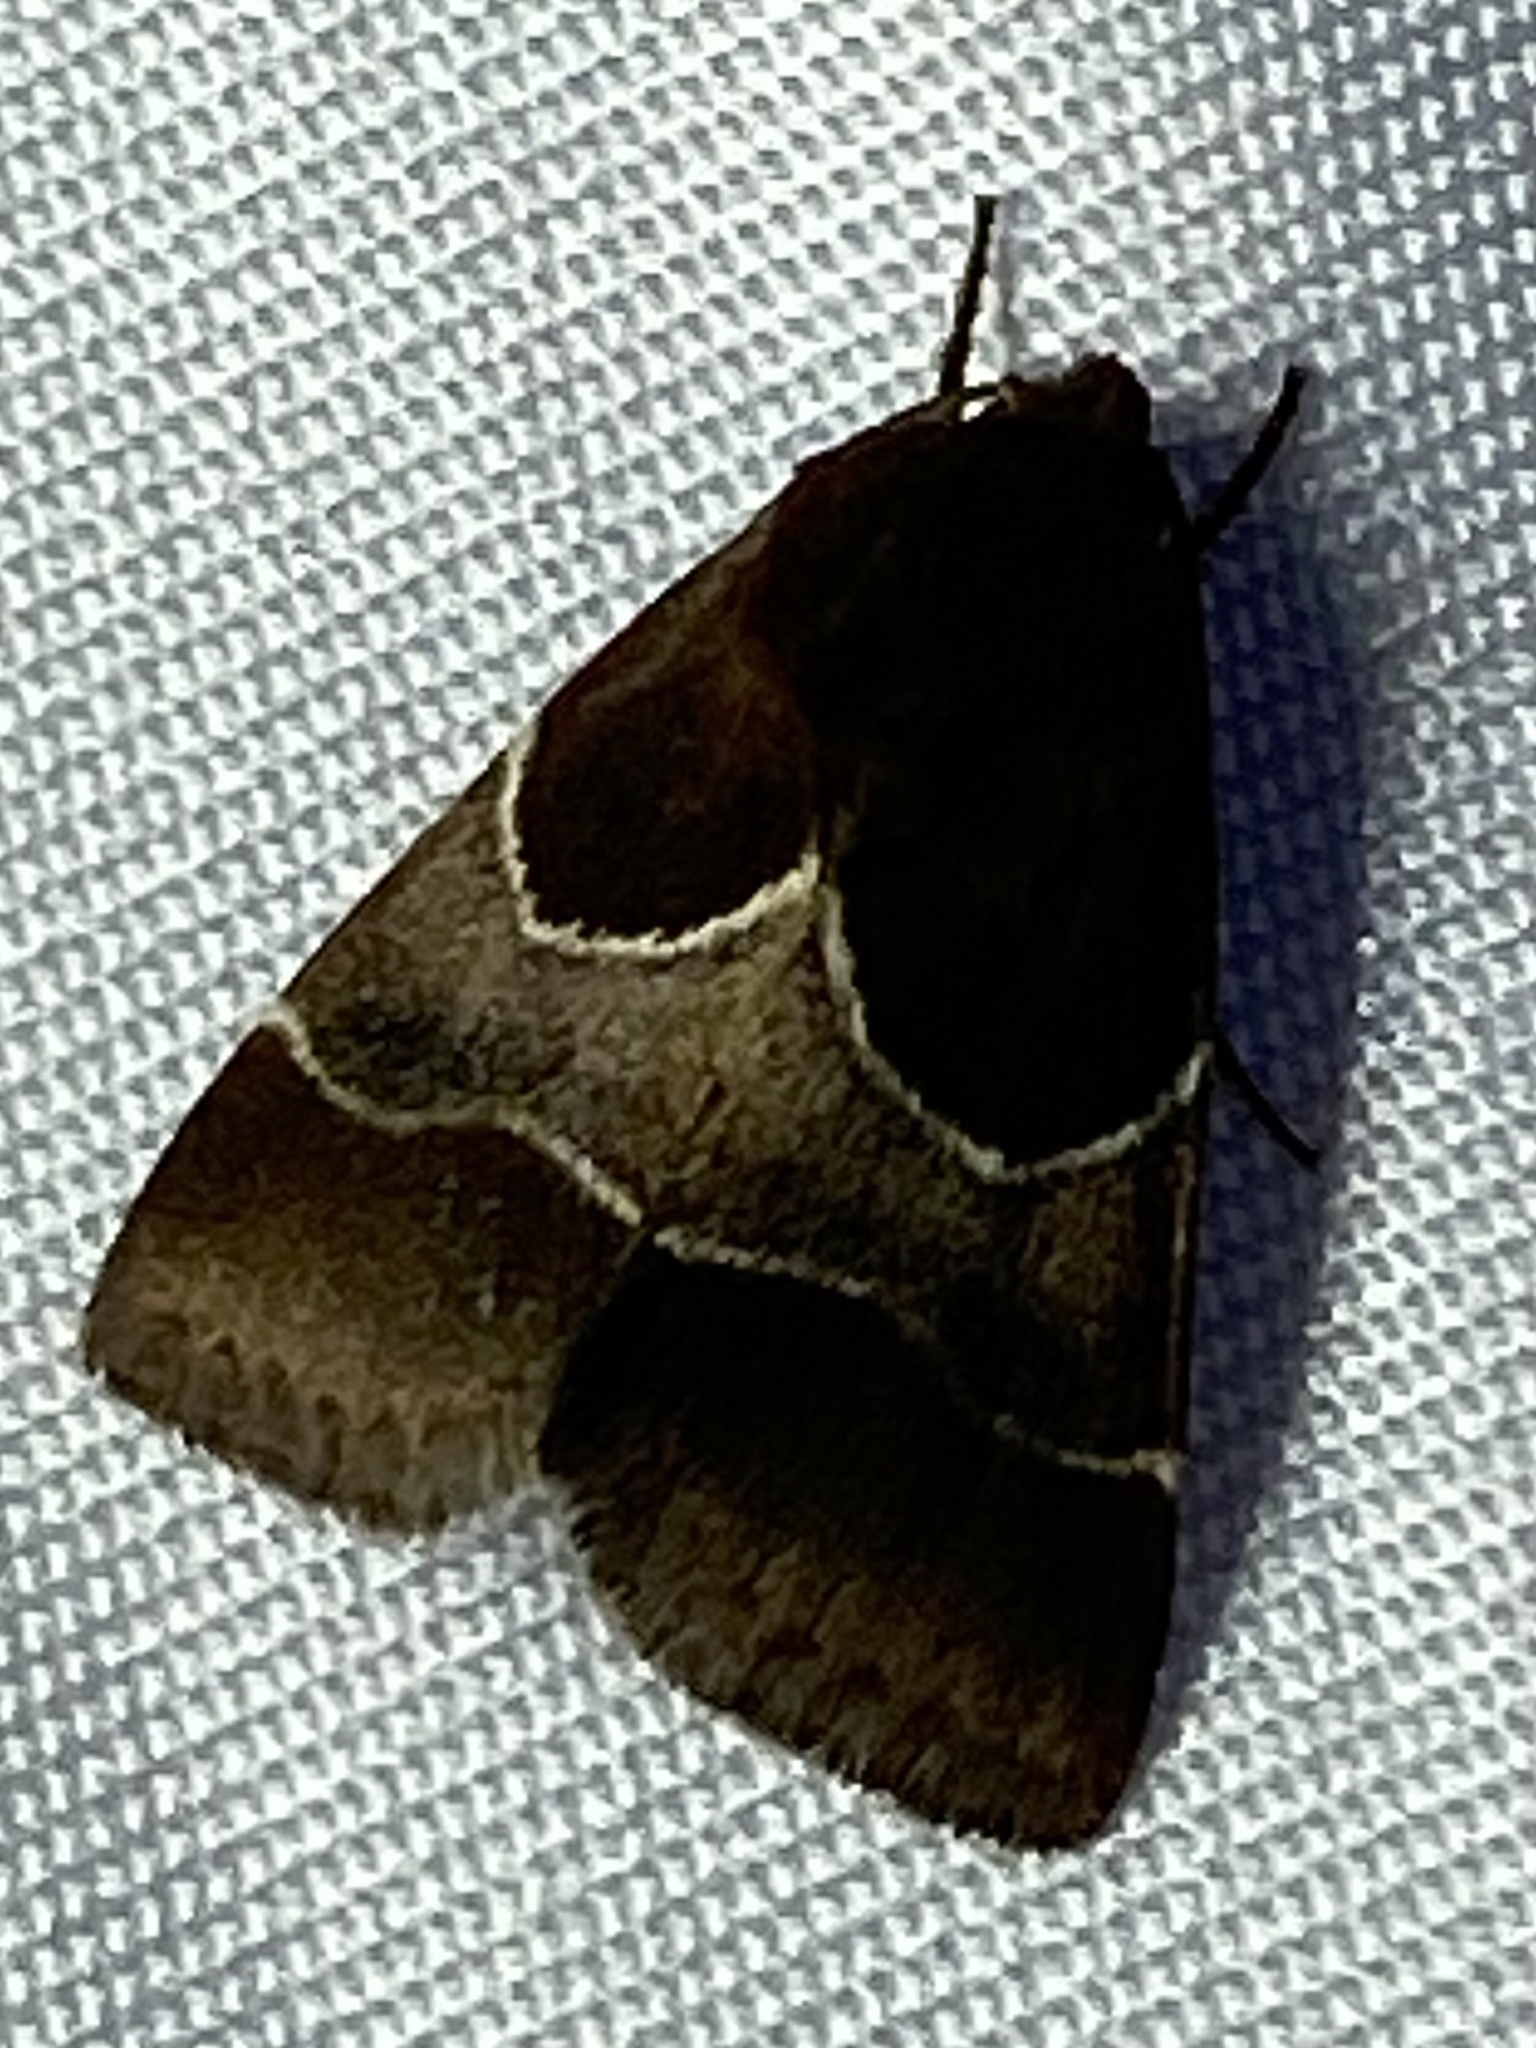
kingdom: Animalia
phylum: Arthropoda
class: Insecta
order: Lepidoptera
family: Noctuidae
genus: Schinia
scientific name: Schinia arcigera
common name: Arcigera flower moth
